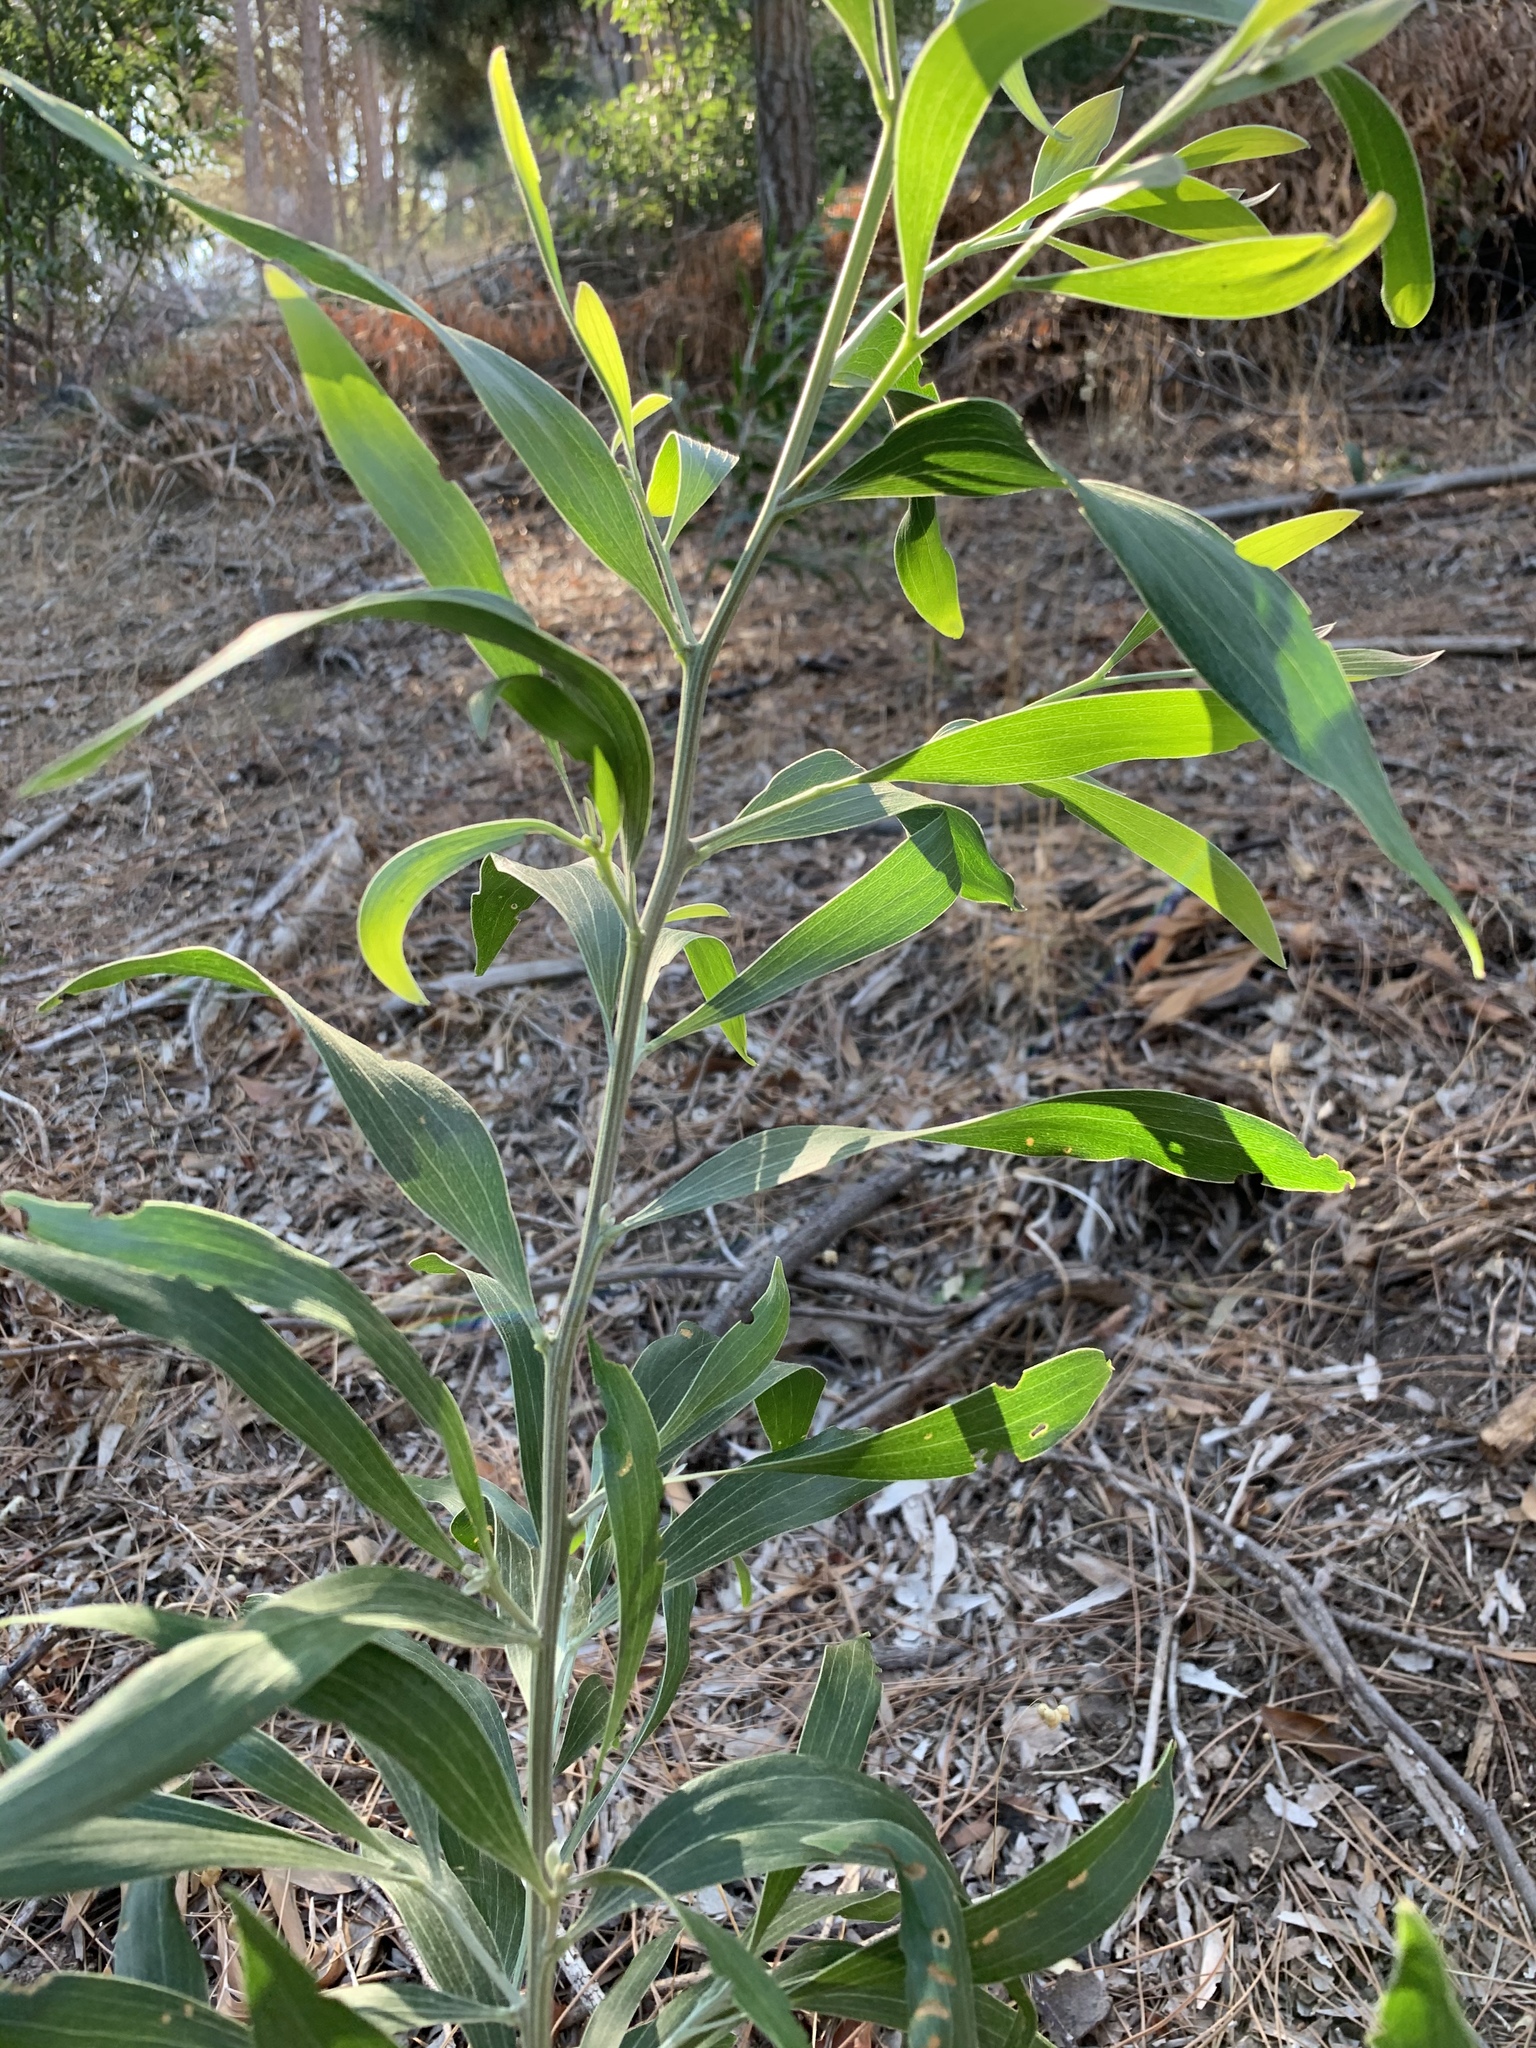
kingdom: Plantae
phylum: Tracheophyta
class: Magnoliopsida
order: Fabales
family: Fabaceae
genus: Acacia
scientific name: Acacia melanoxylon
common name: Blackwood
